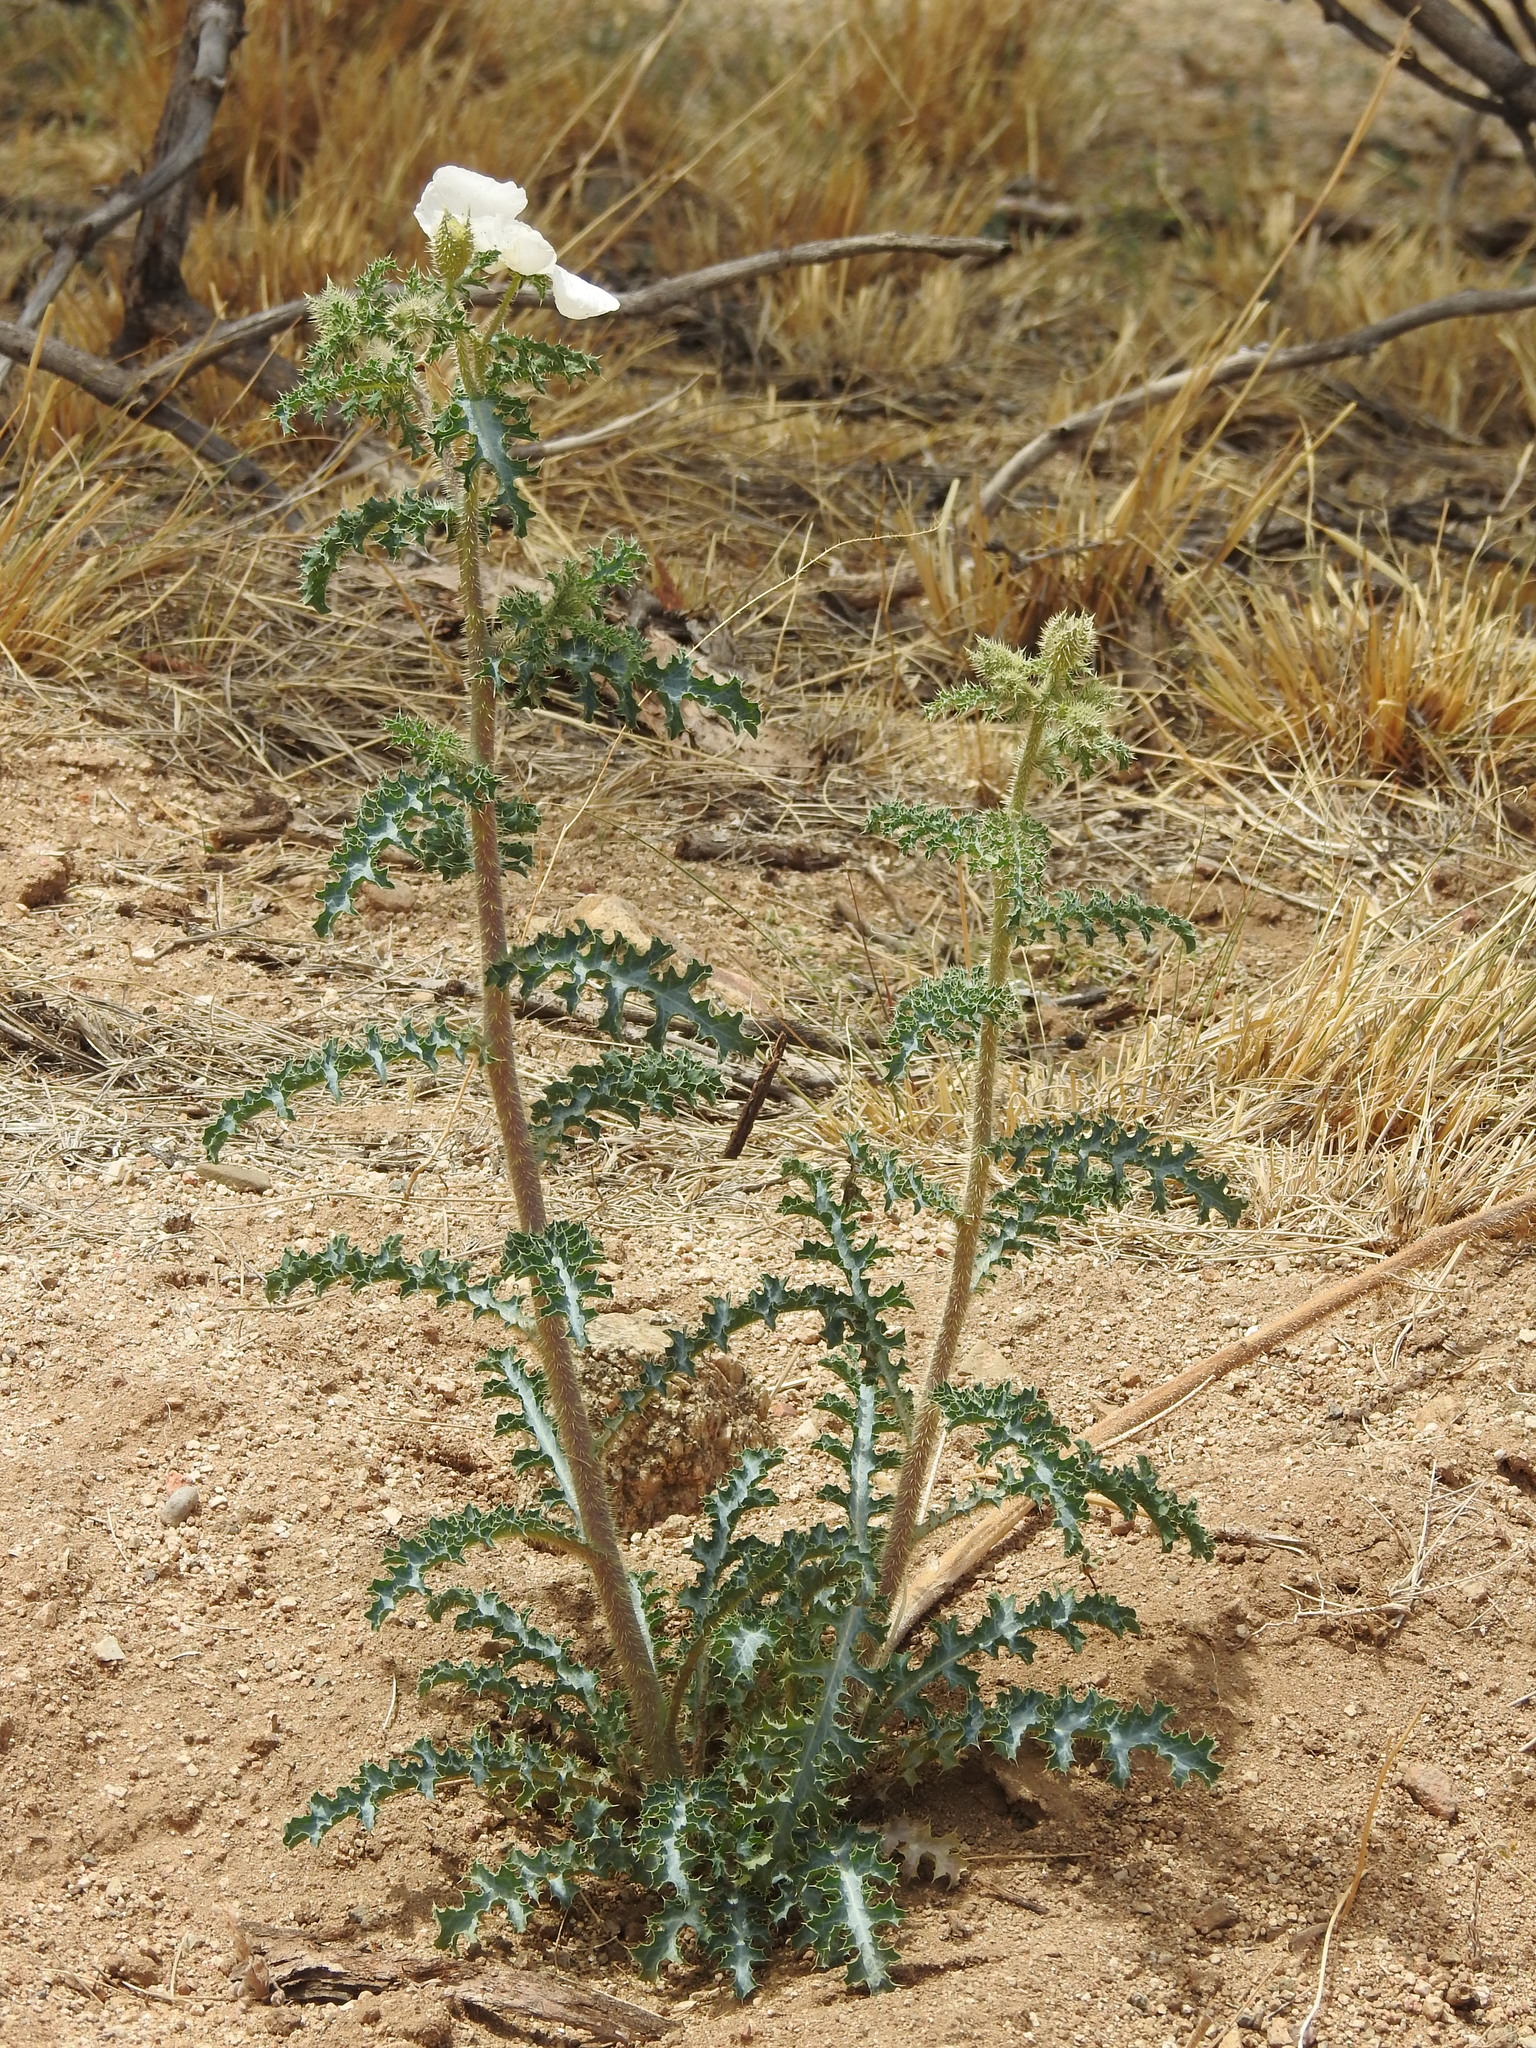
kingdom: Plantae
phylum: Tracheophyta
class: Magnoliopsida
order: Ranunculales
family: Papaveraceae
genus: Argemone
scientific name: Argemone pleiacantha
